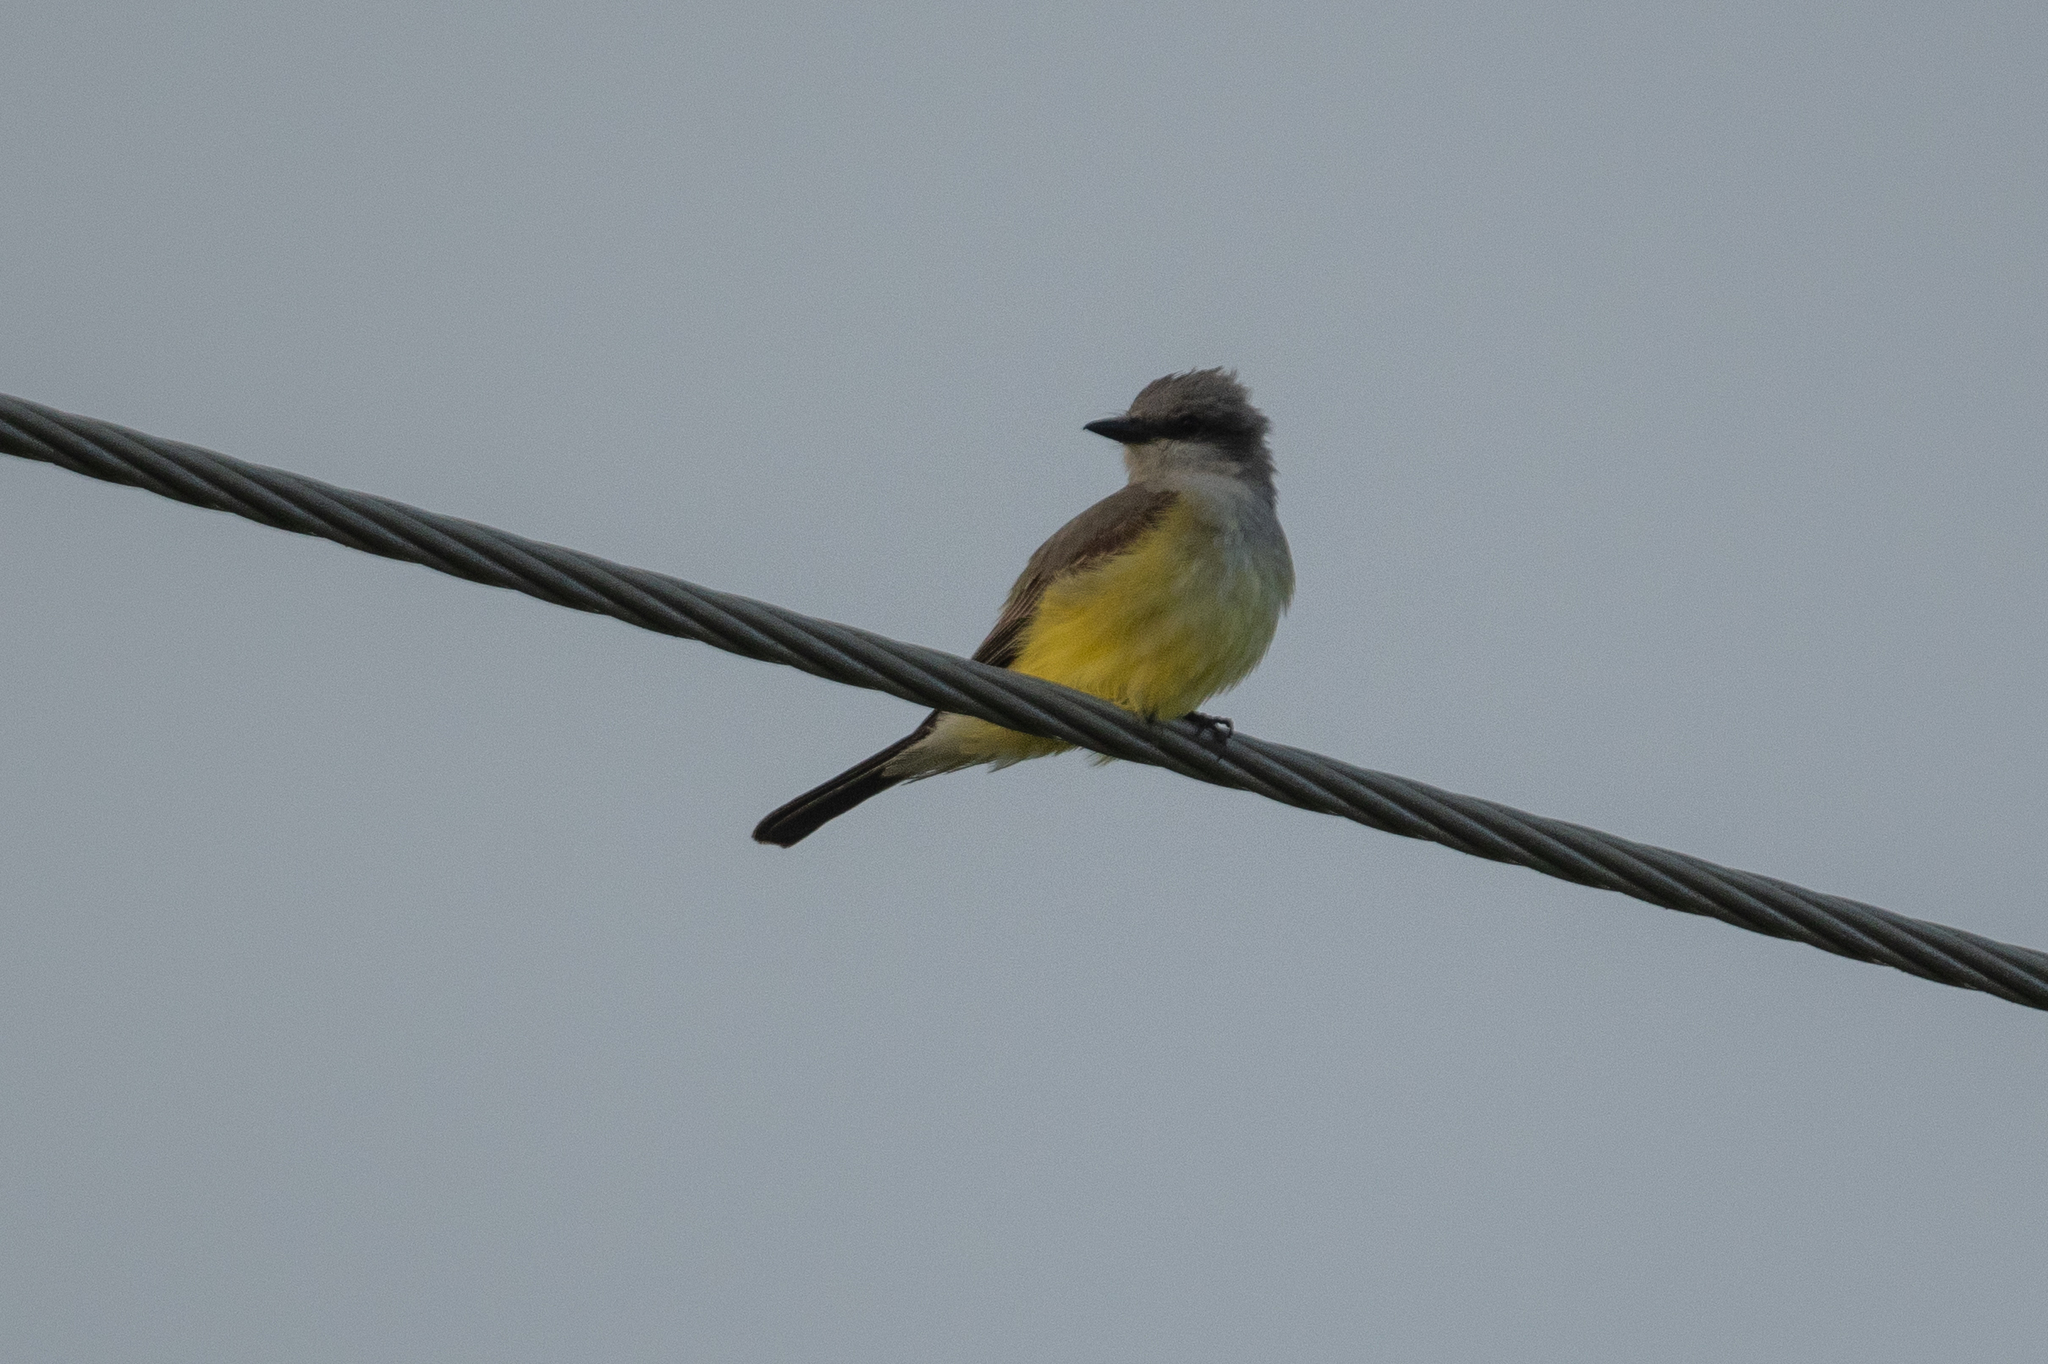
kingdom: Animalia
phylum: Chordata
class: Aves
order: Passeriformes
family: Tyrannidae
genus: Tyrannus
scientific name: Tyrannus verticalis
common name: Western kingbird
